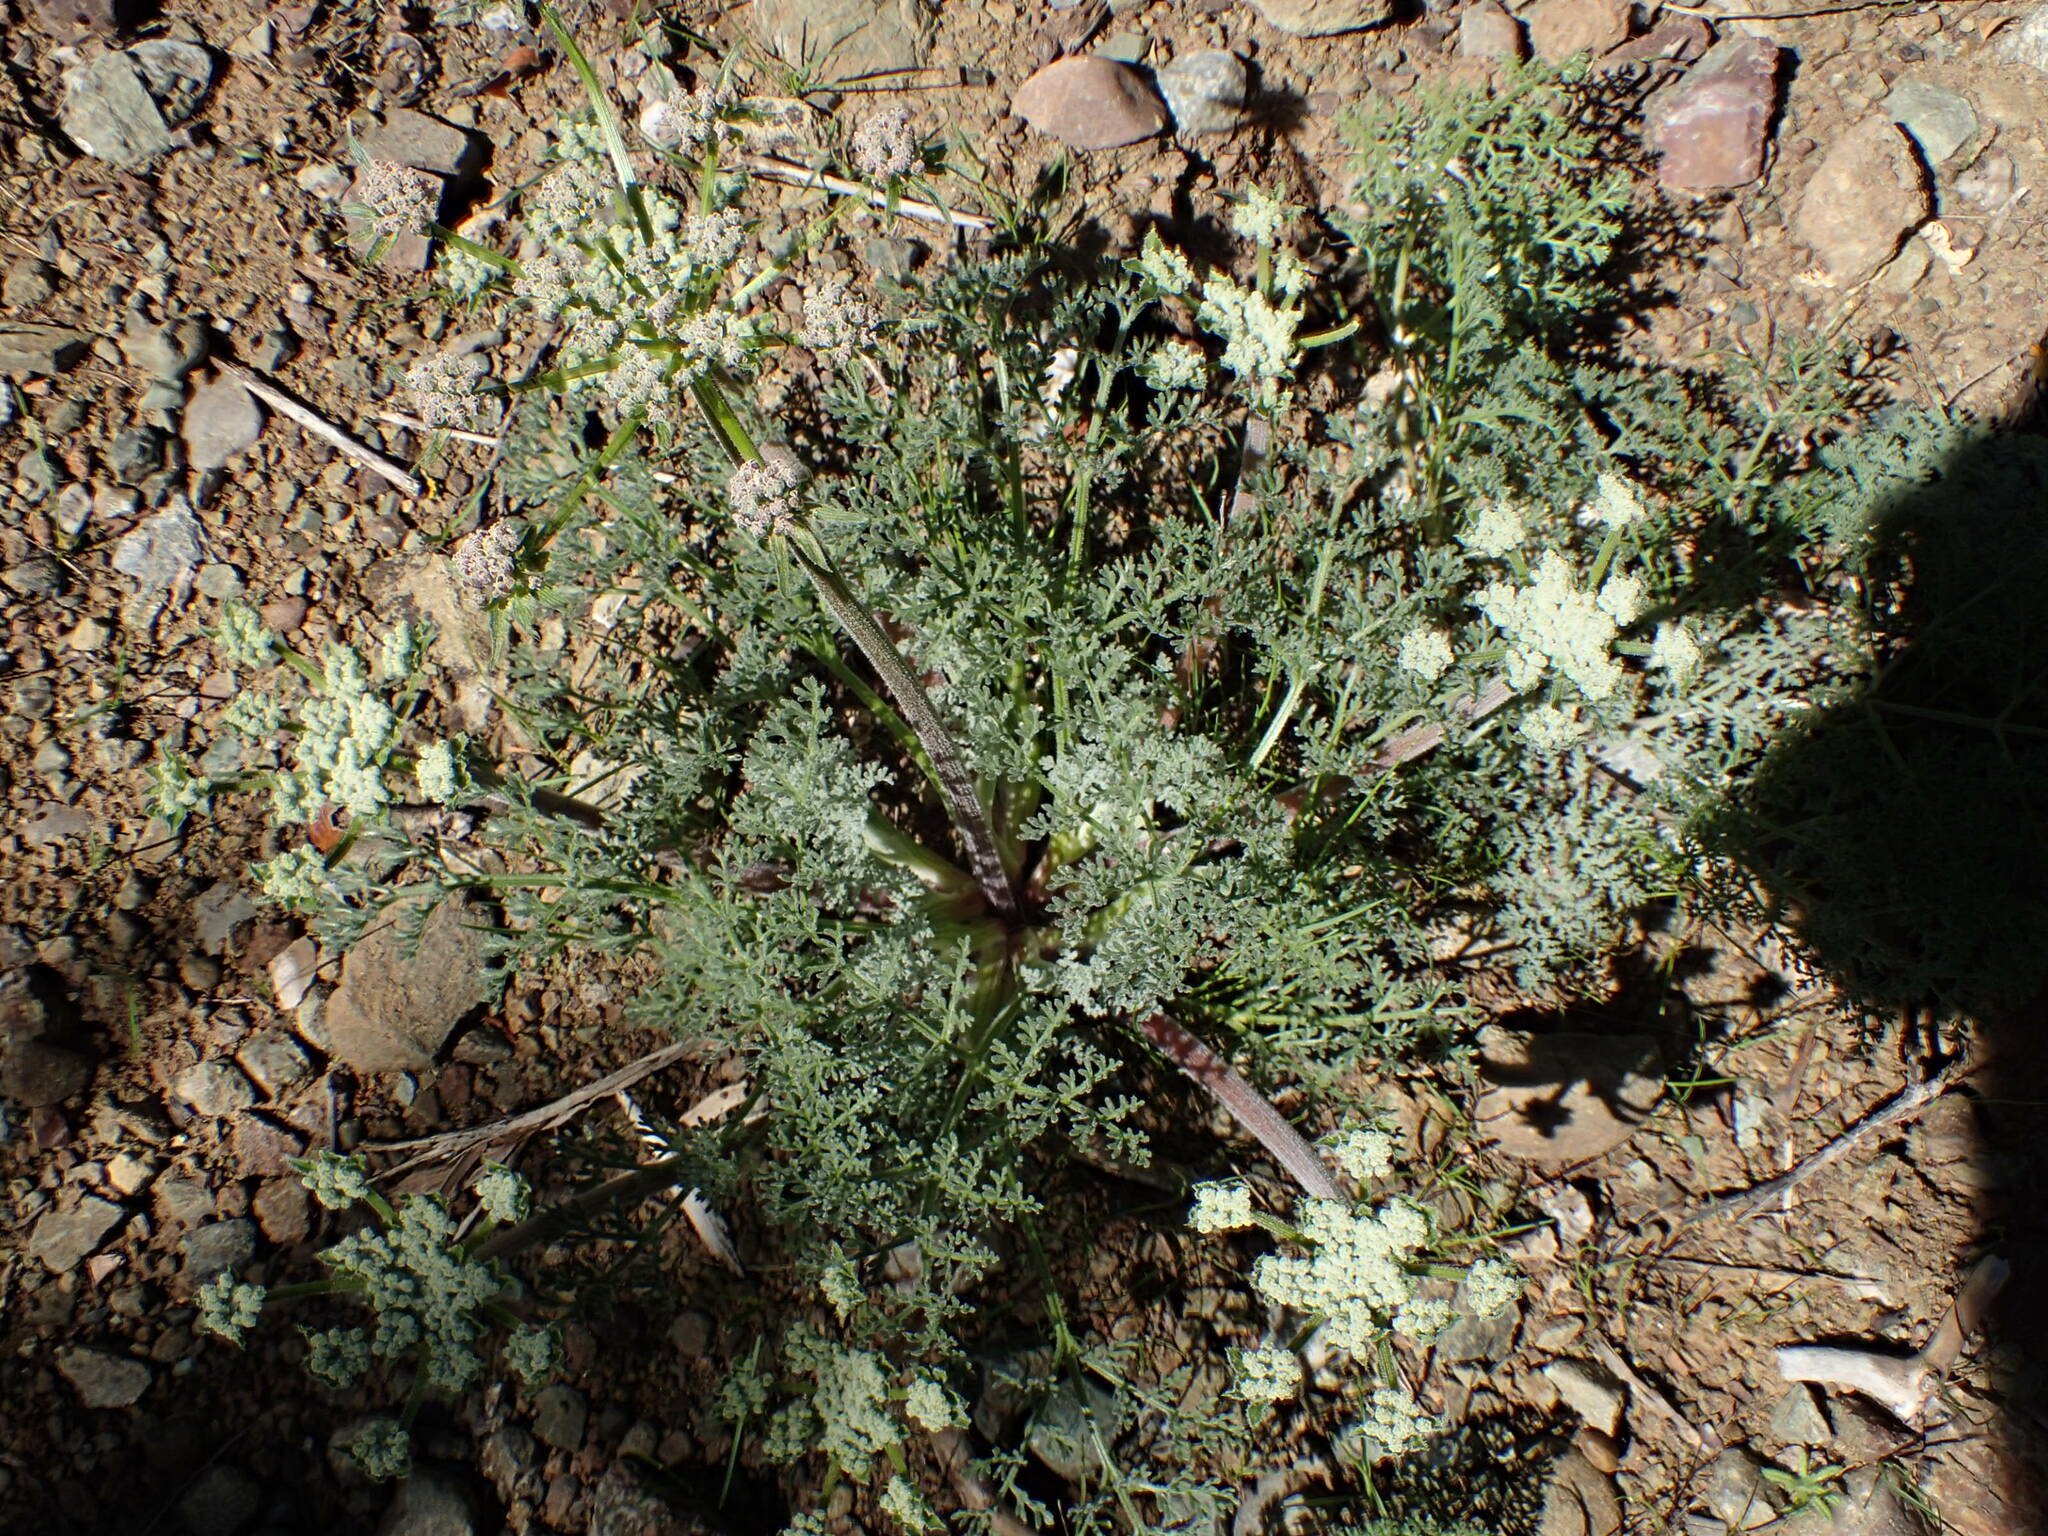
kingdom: Plantae
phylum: Tracheophyta
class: Magnoliopsida
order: Apiales
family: Apiaceae
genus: Lomatium
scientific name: Lomatium dasycarpum
